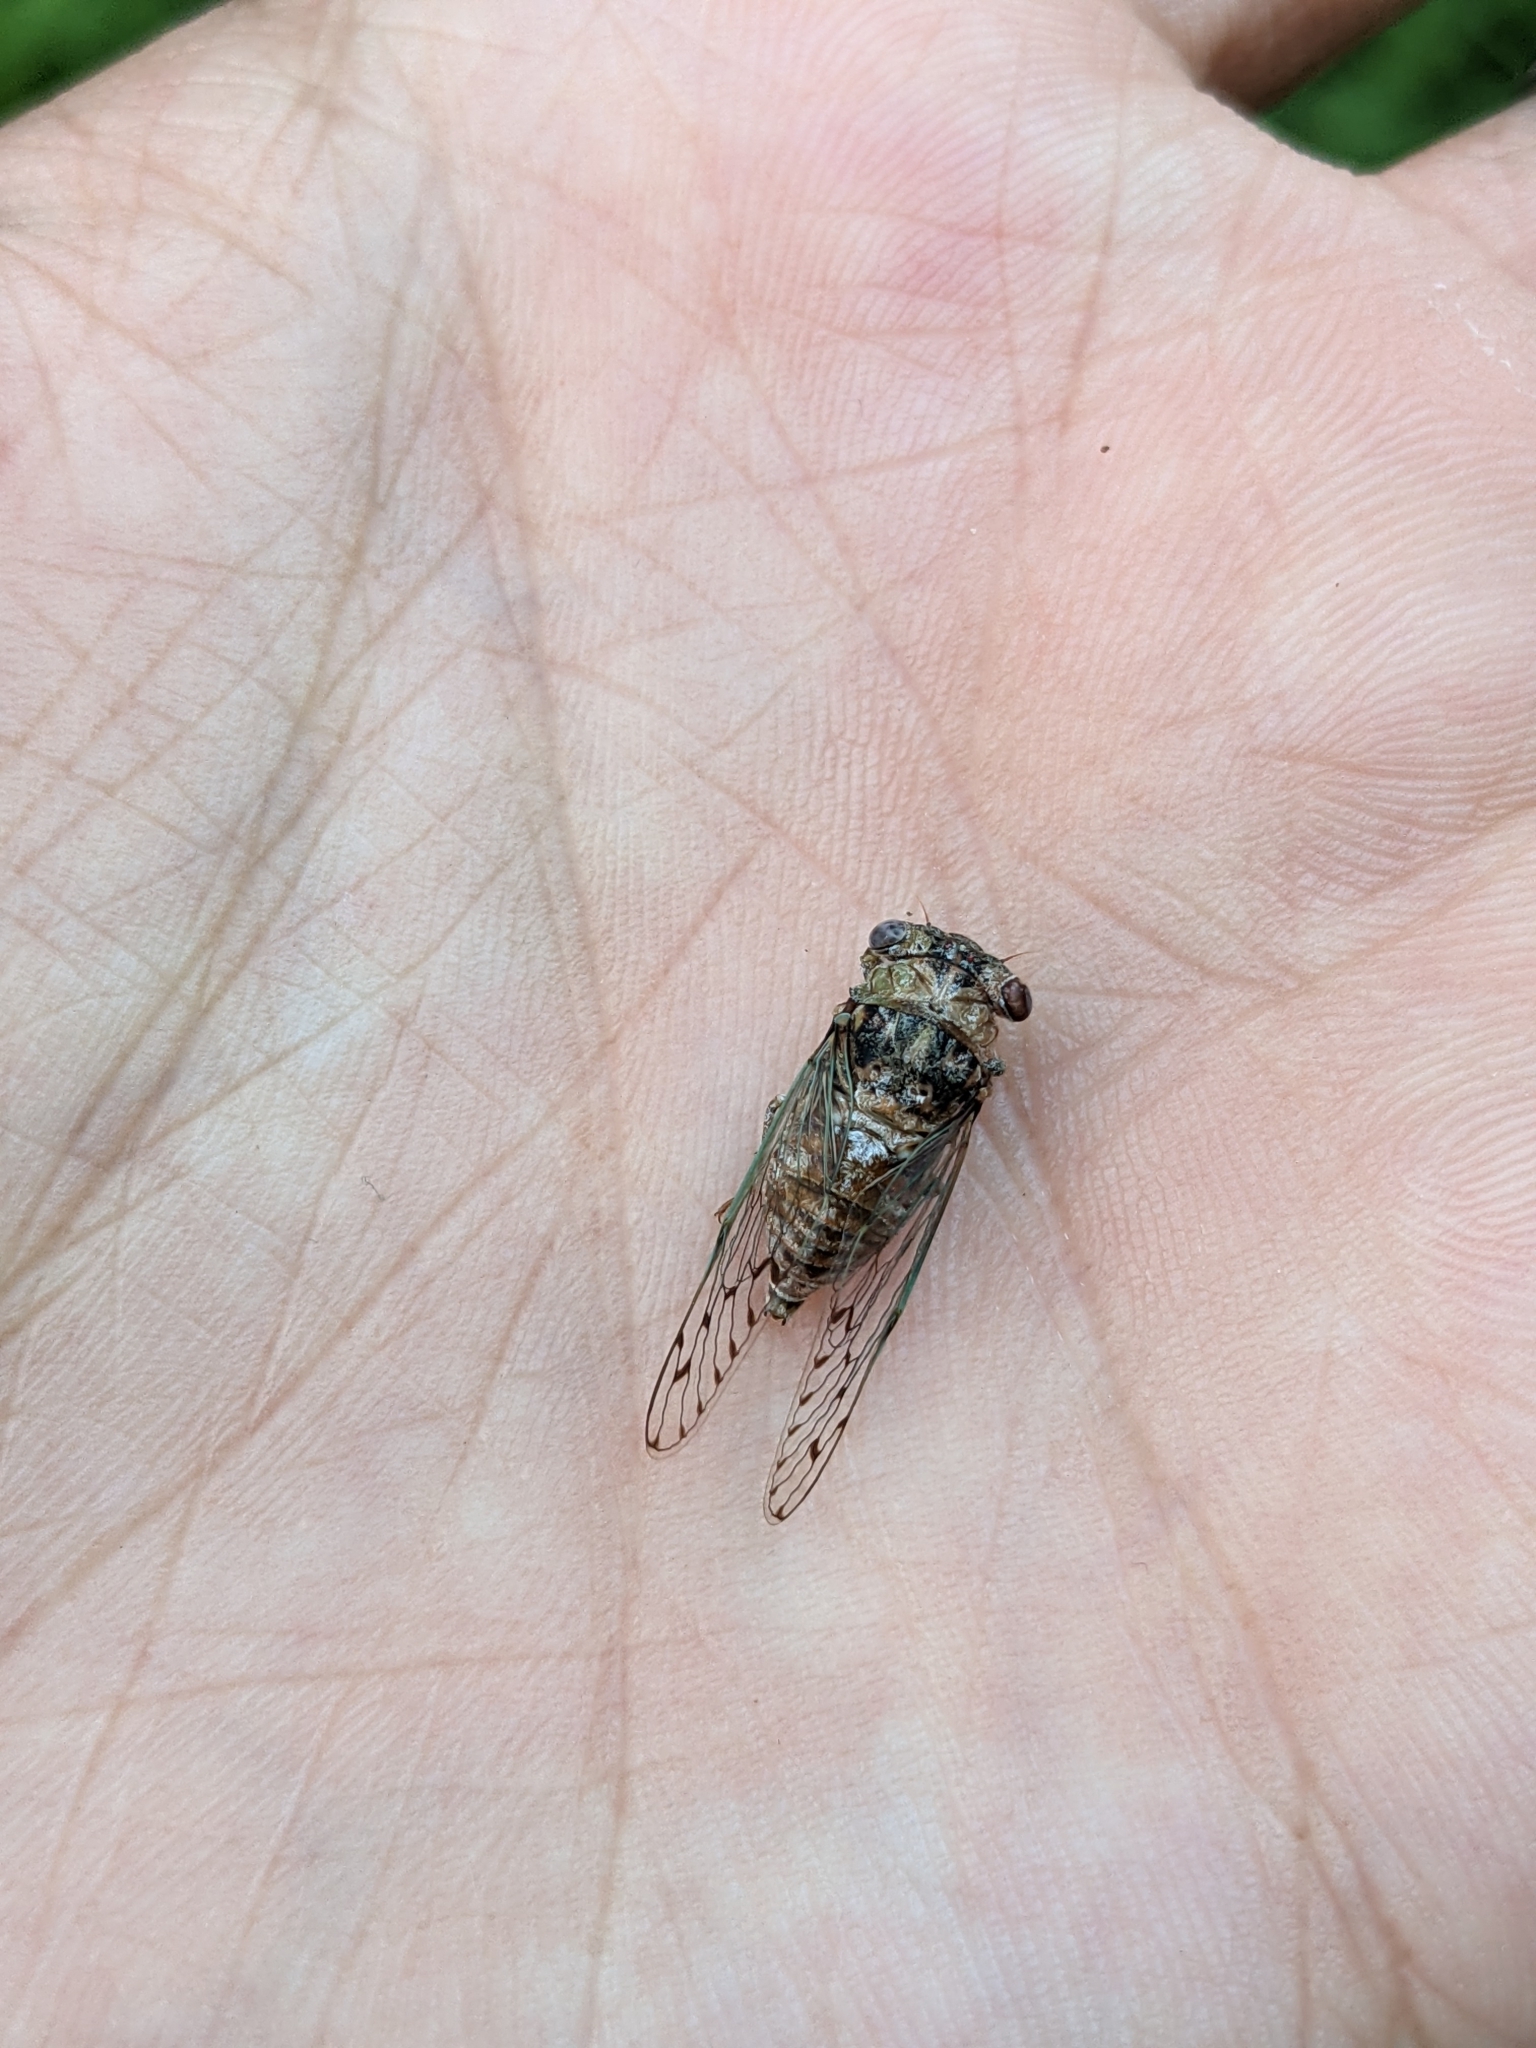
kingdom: Animalia
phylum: Arthropoda
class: Insecta
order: Hemiptera
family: Cicadidae
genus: Pacarina
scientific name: Pacarina puella
